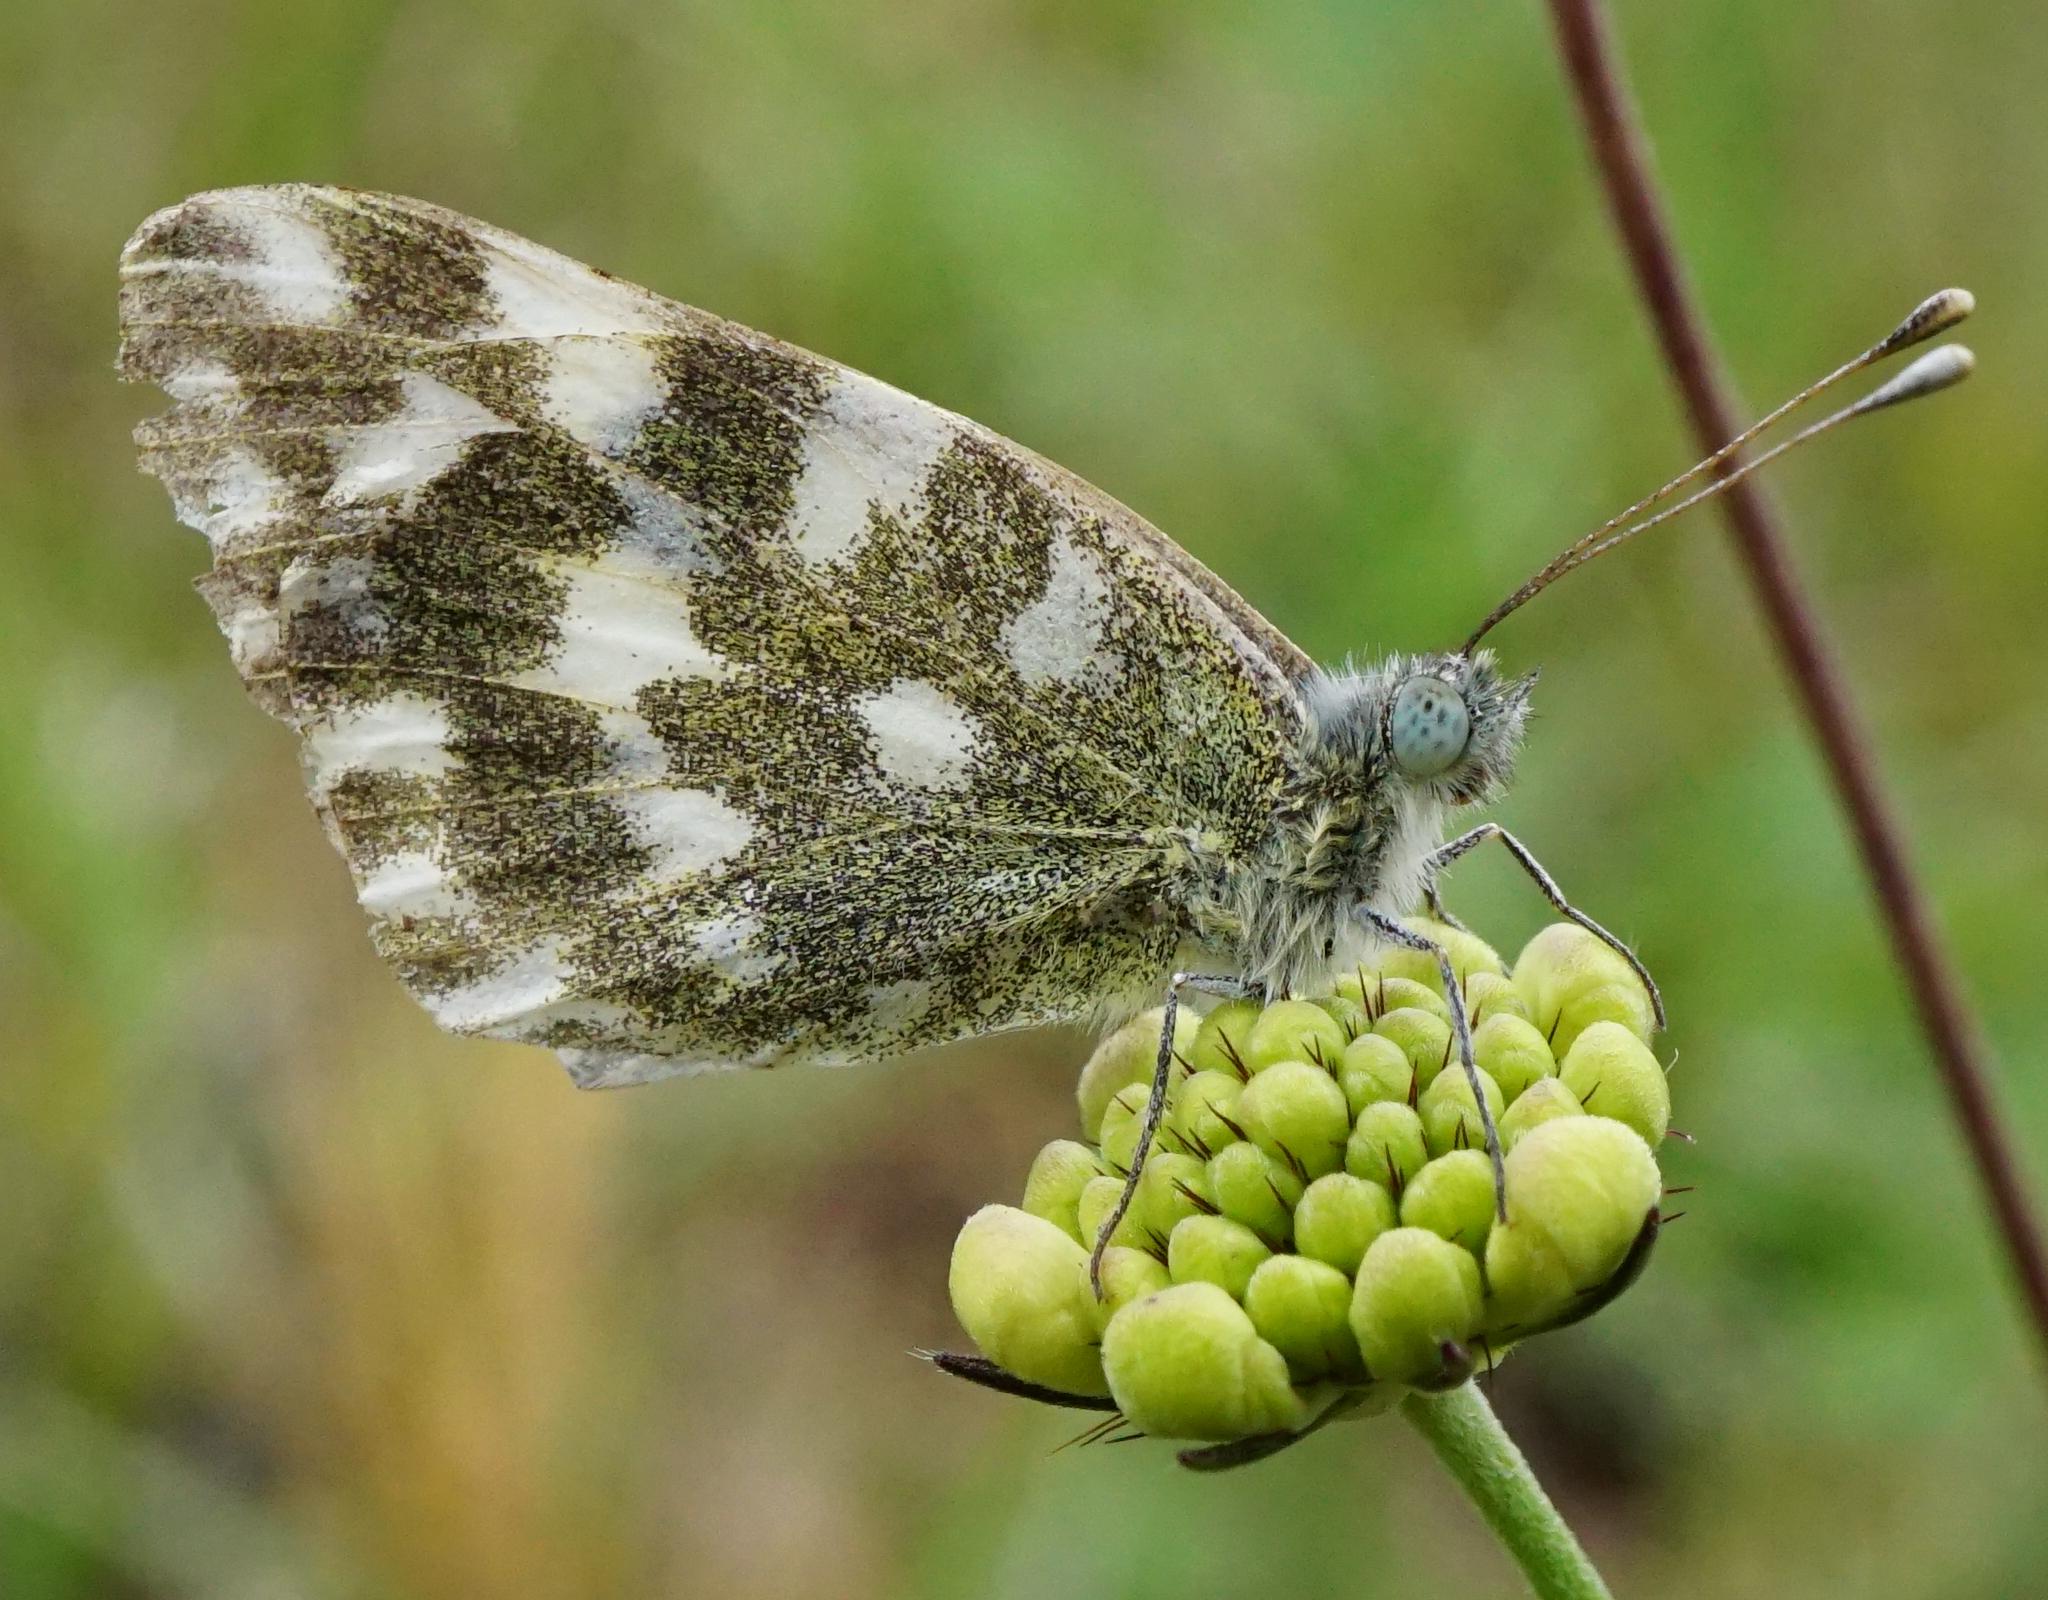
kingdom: Animalia
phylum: Arthropoda
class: Insecta
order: Lepidoptera
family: Pieridae
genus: Pontia
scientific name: Pontia edusa
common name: Eastern bath white
